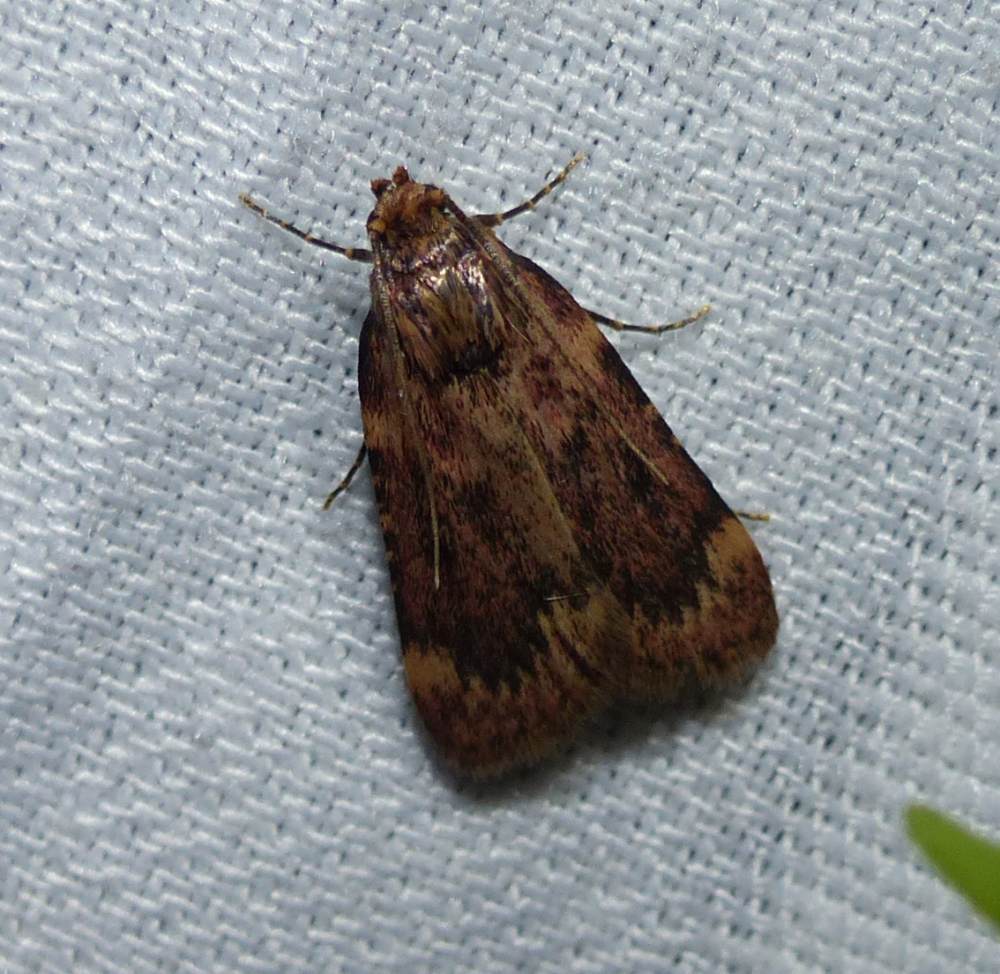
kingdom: Animalia
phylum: Arthropoda
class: Insecta
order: Lepidoptera
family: Pyralidae
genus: Aglossa
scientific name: Aglossa cuprina
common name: Grease moth
